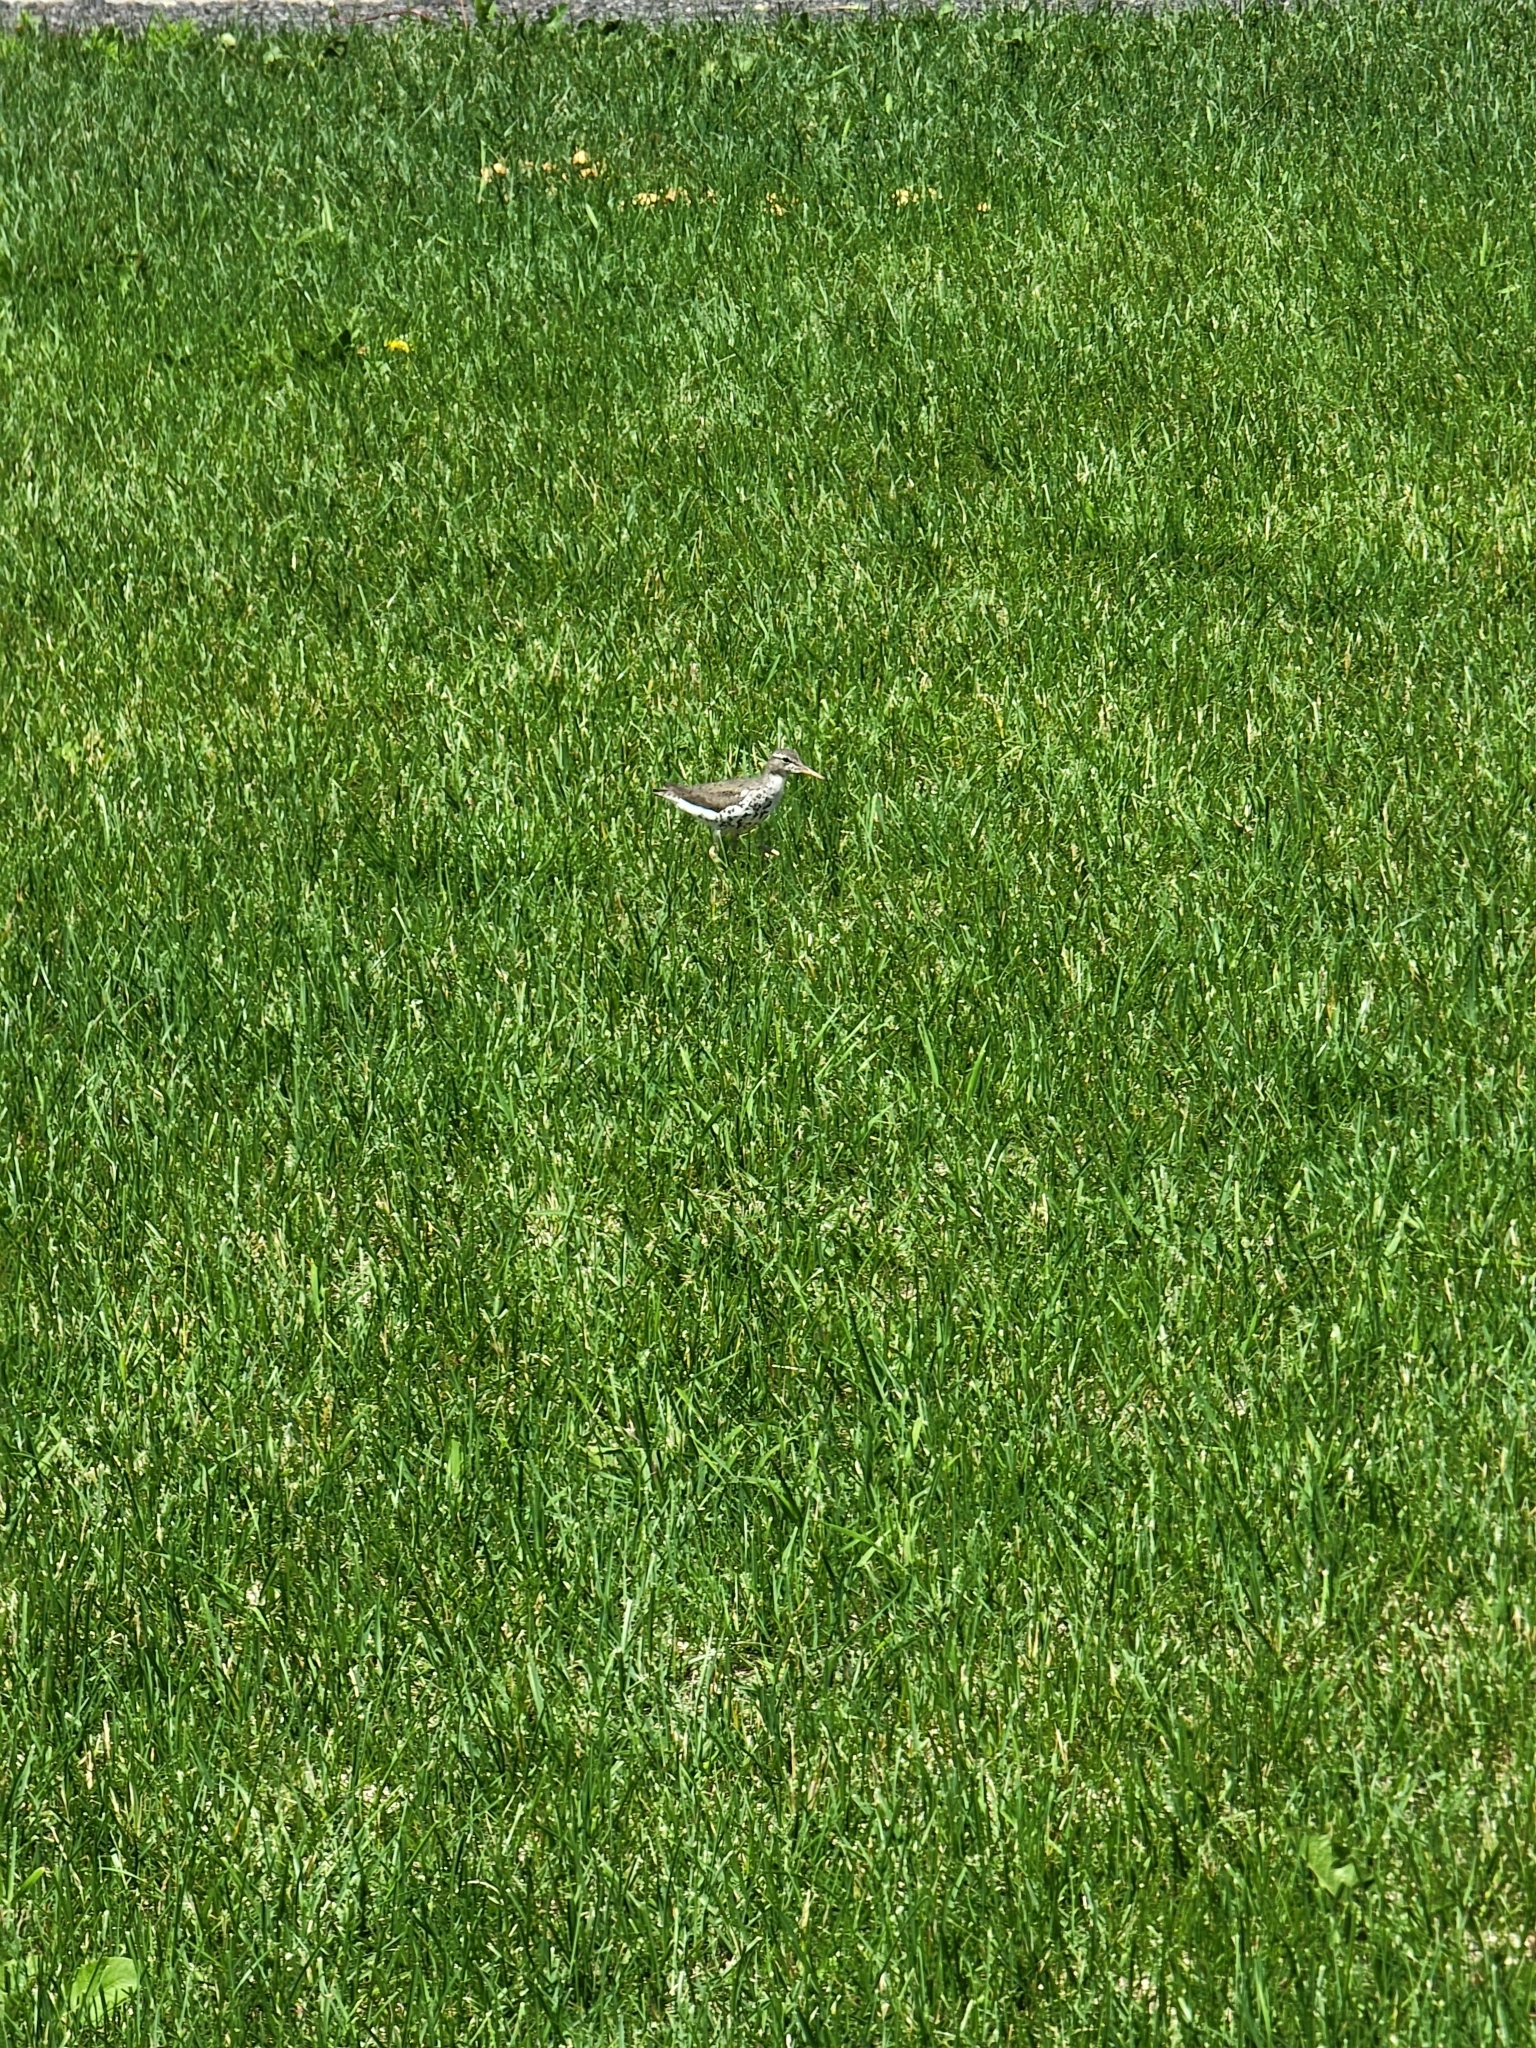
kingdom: Animalia
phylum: Chordata
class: Aves
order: Charadriiformes
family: Scolopacidae
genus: Actitis
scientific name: Actitis macularius
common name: Spotted sandpiper
